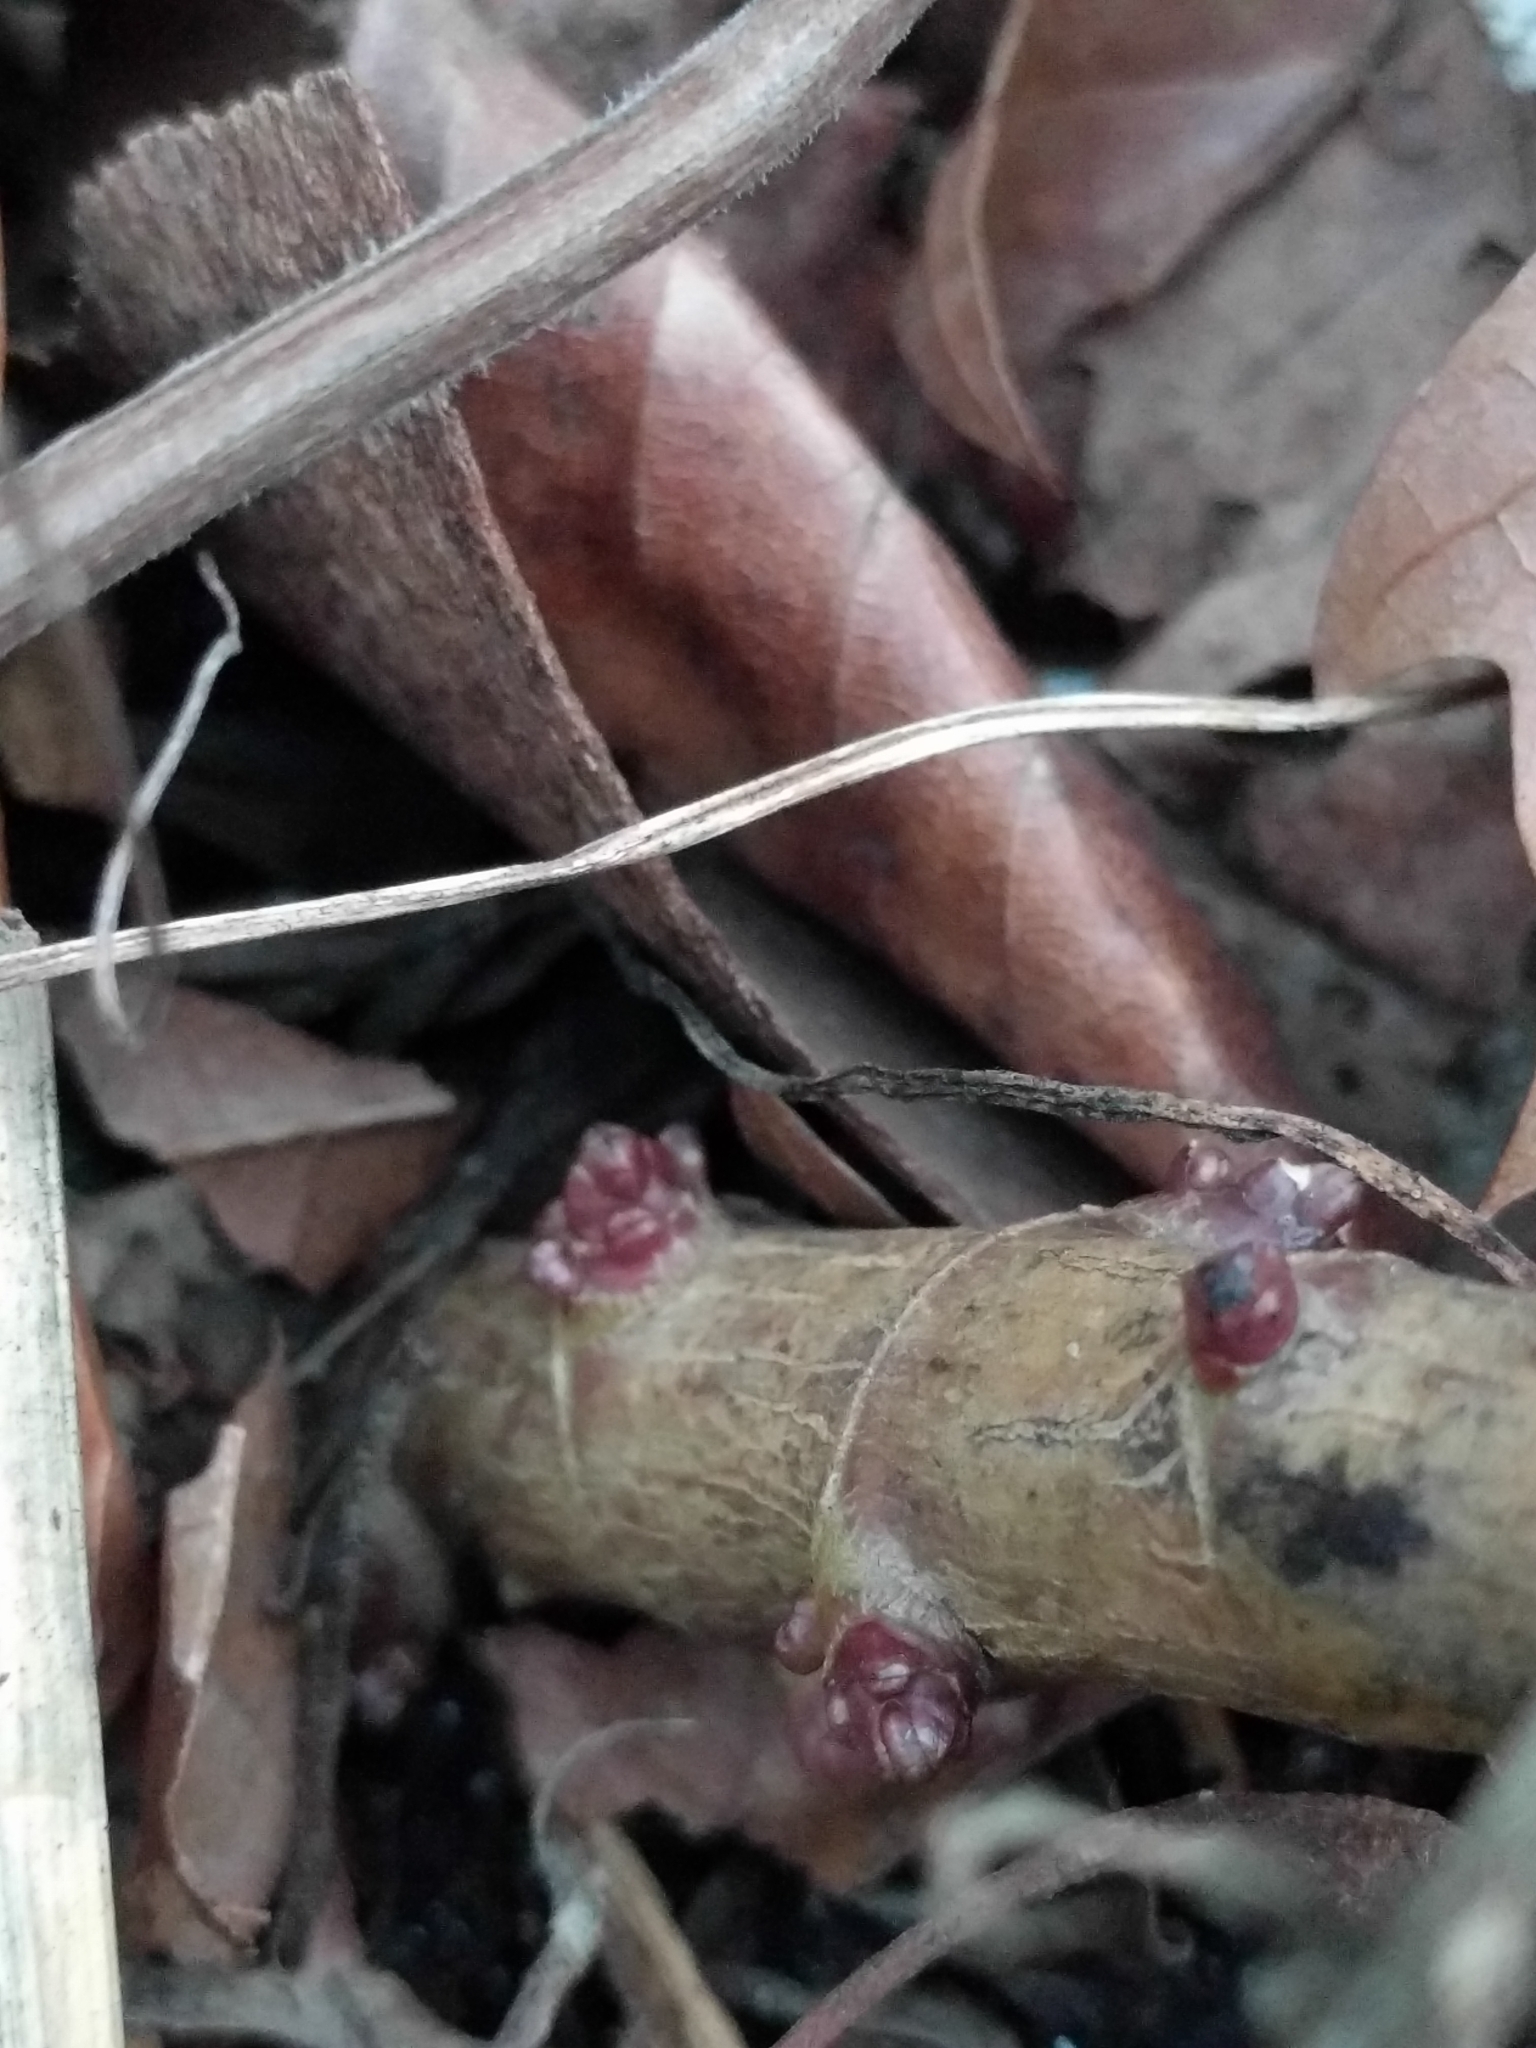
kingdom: Plantae
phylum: Tracheophyta
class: Magnoliopsida
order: Gentianales
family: Apocynaceae
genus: Asclepias
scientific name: Asclepias incarnata
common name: Swamp milkweed
